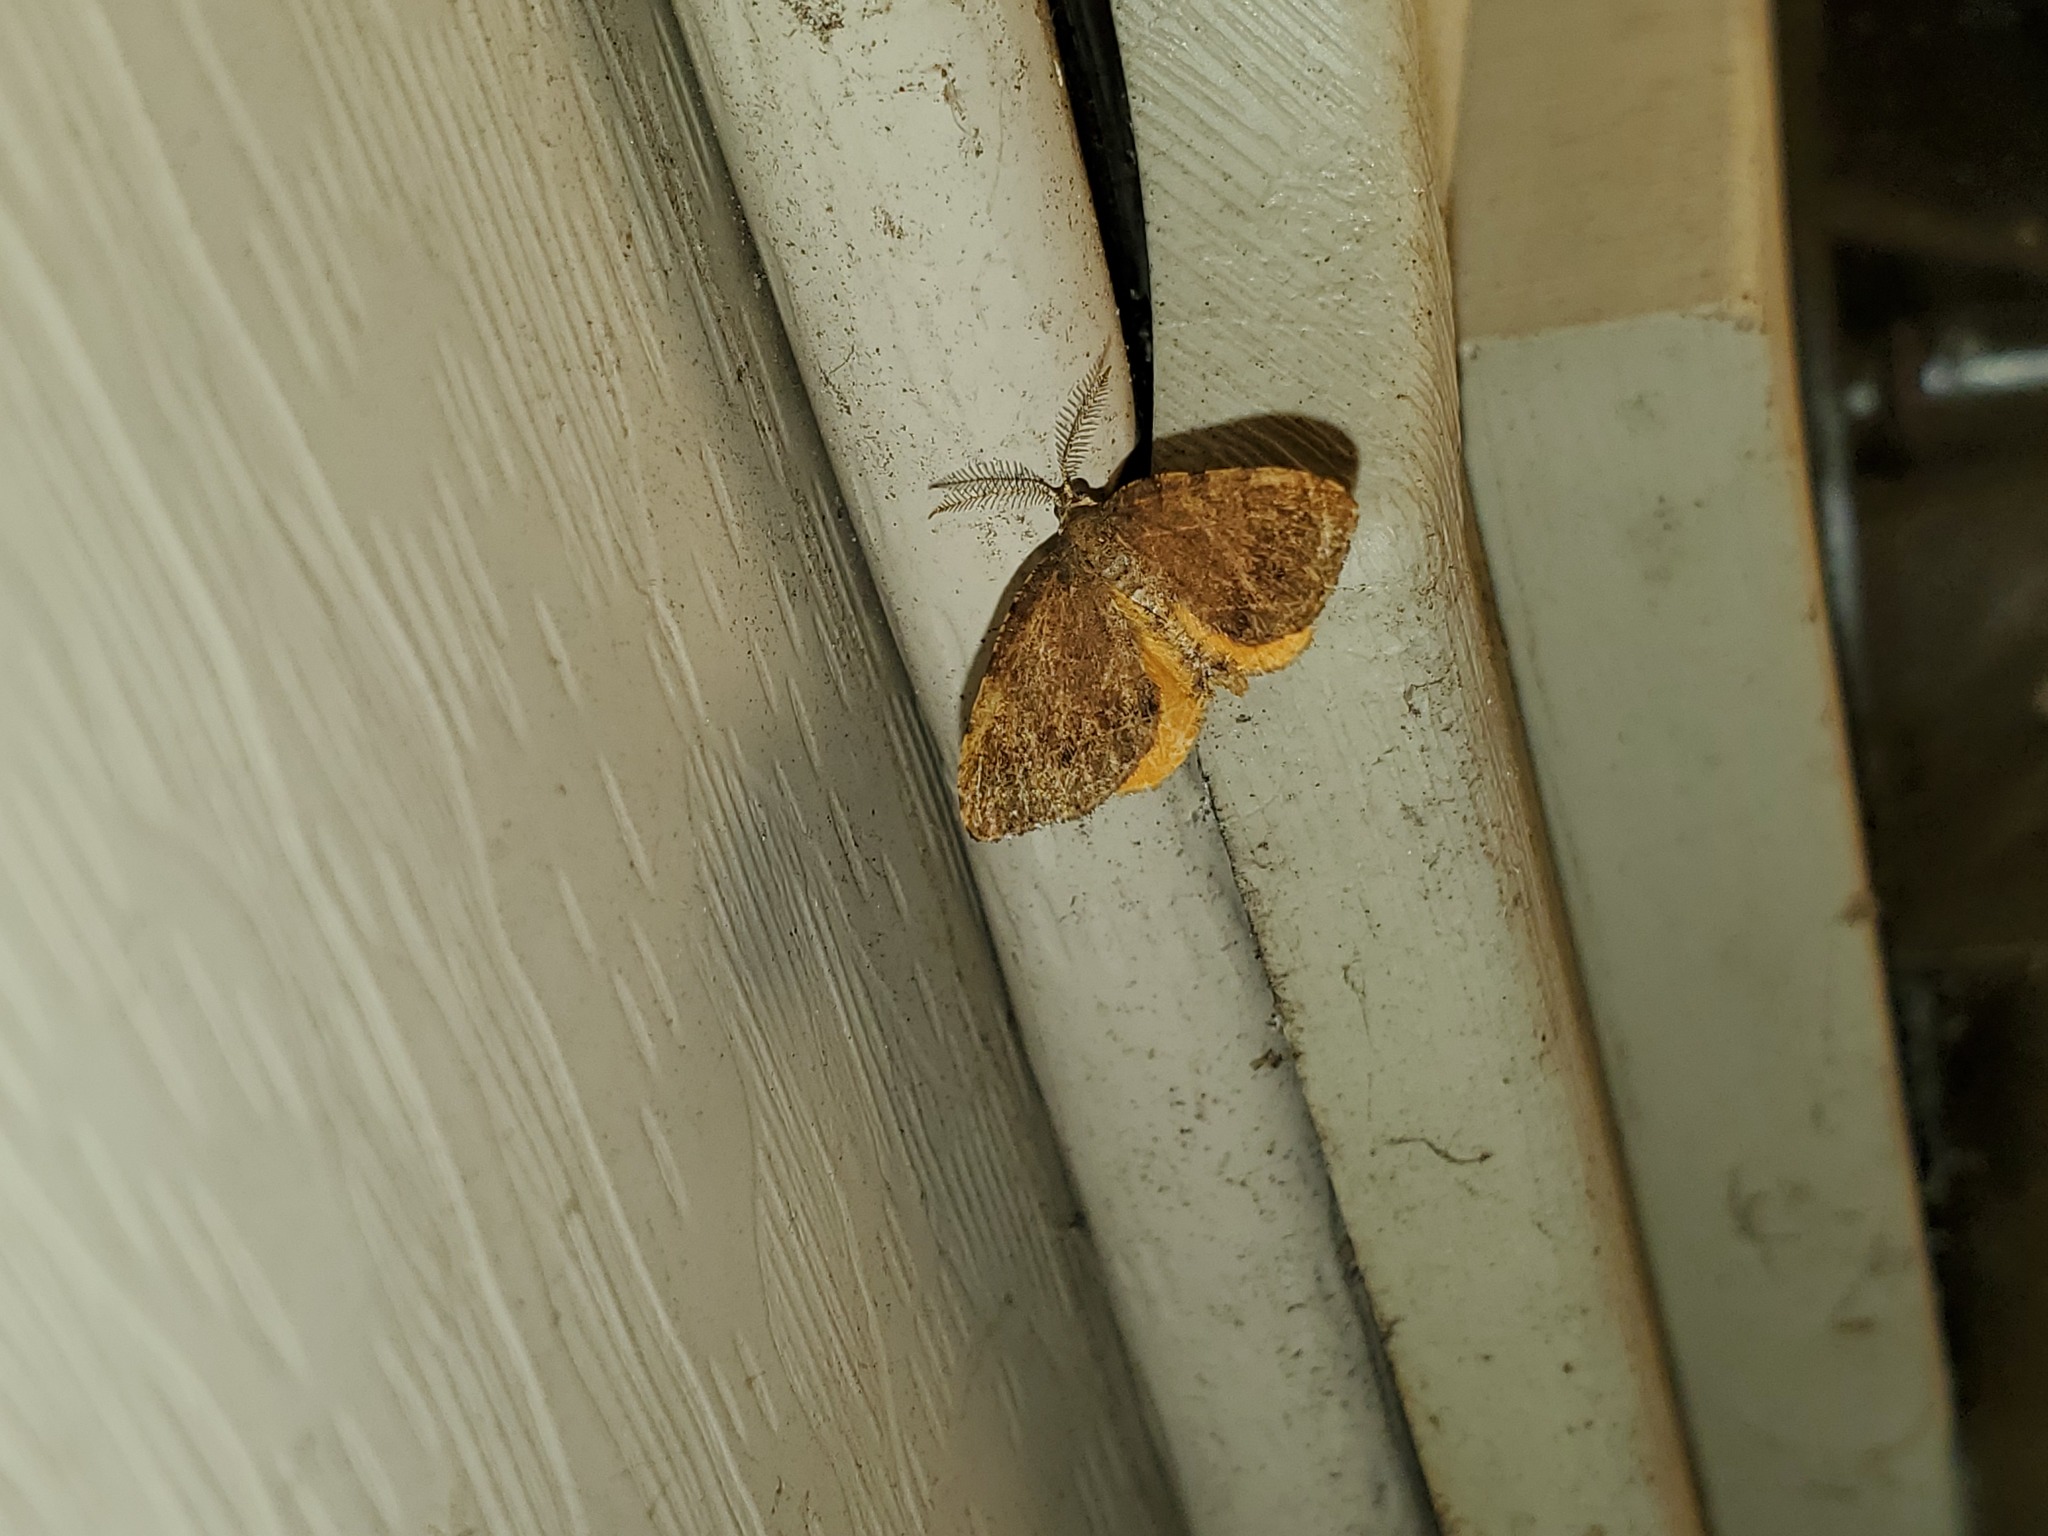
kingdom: Animalia
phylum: Arthropoda
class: Insecta
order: Lepidoptera
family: Geometridae
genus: Mellilla
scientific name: Mellilla xanthometata
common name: Orange wing moth
